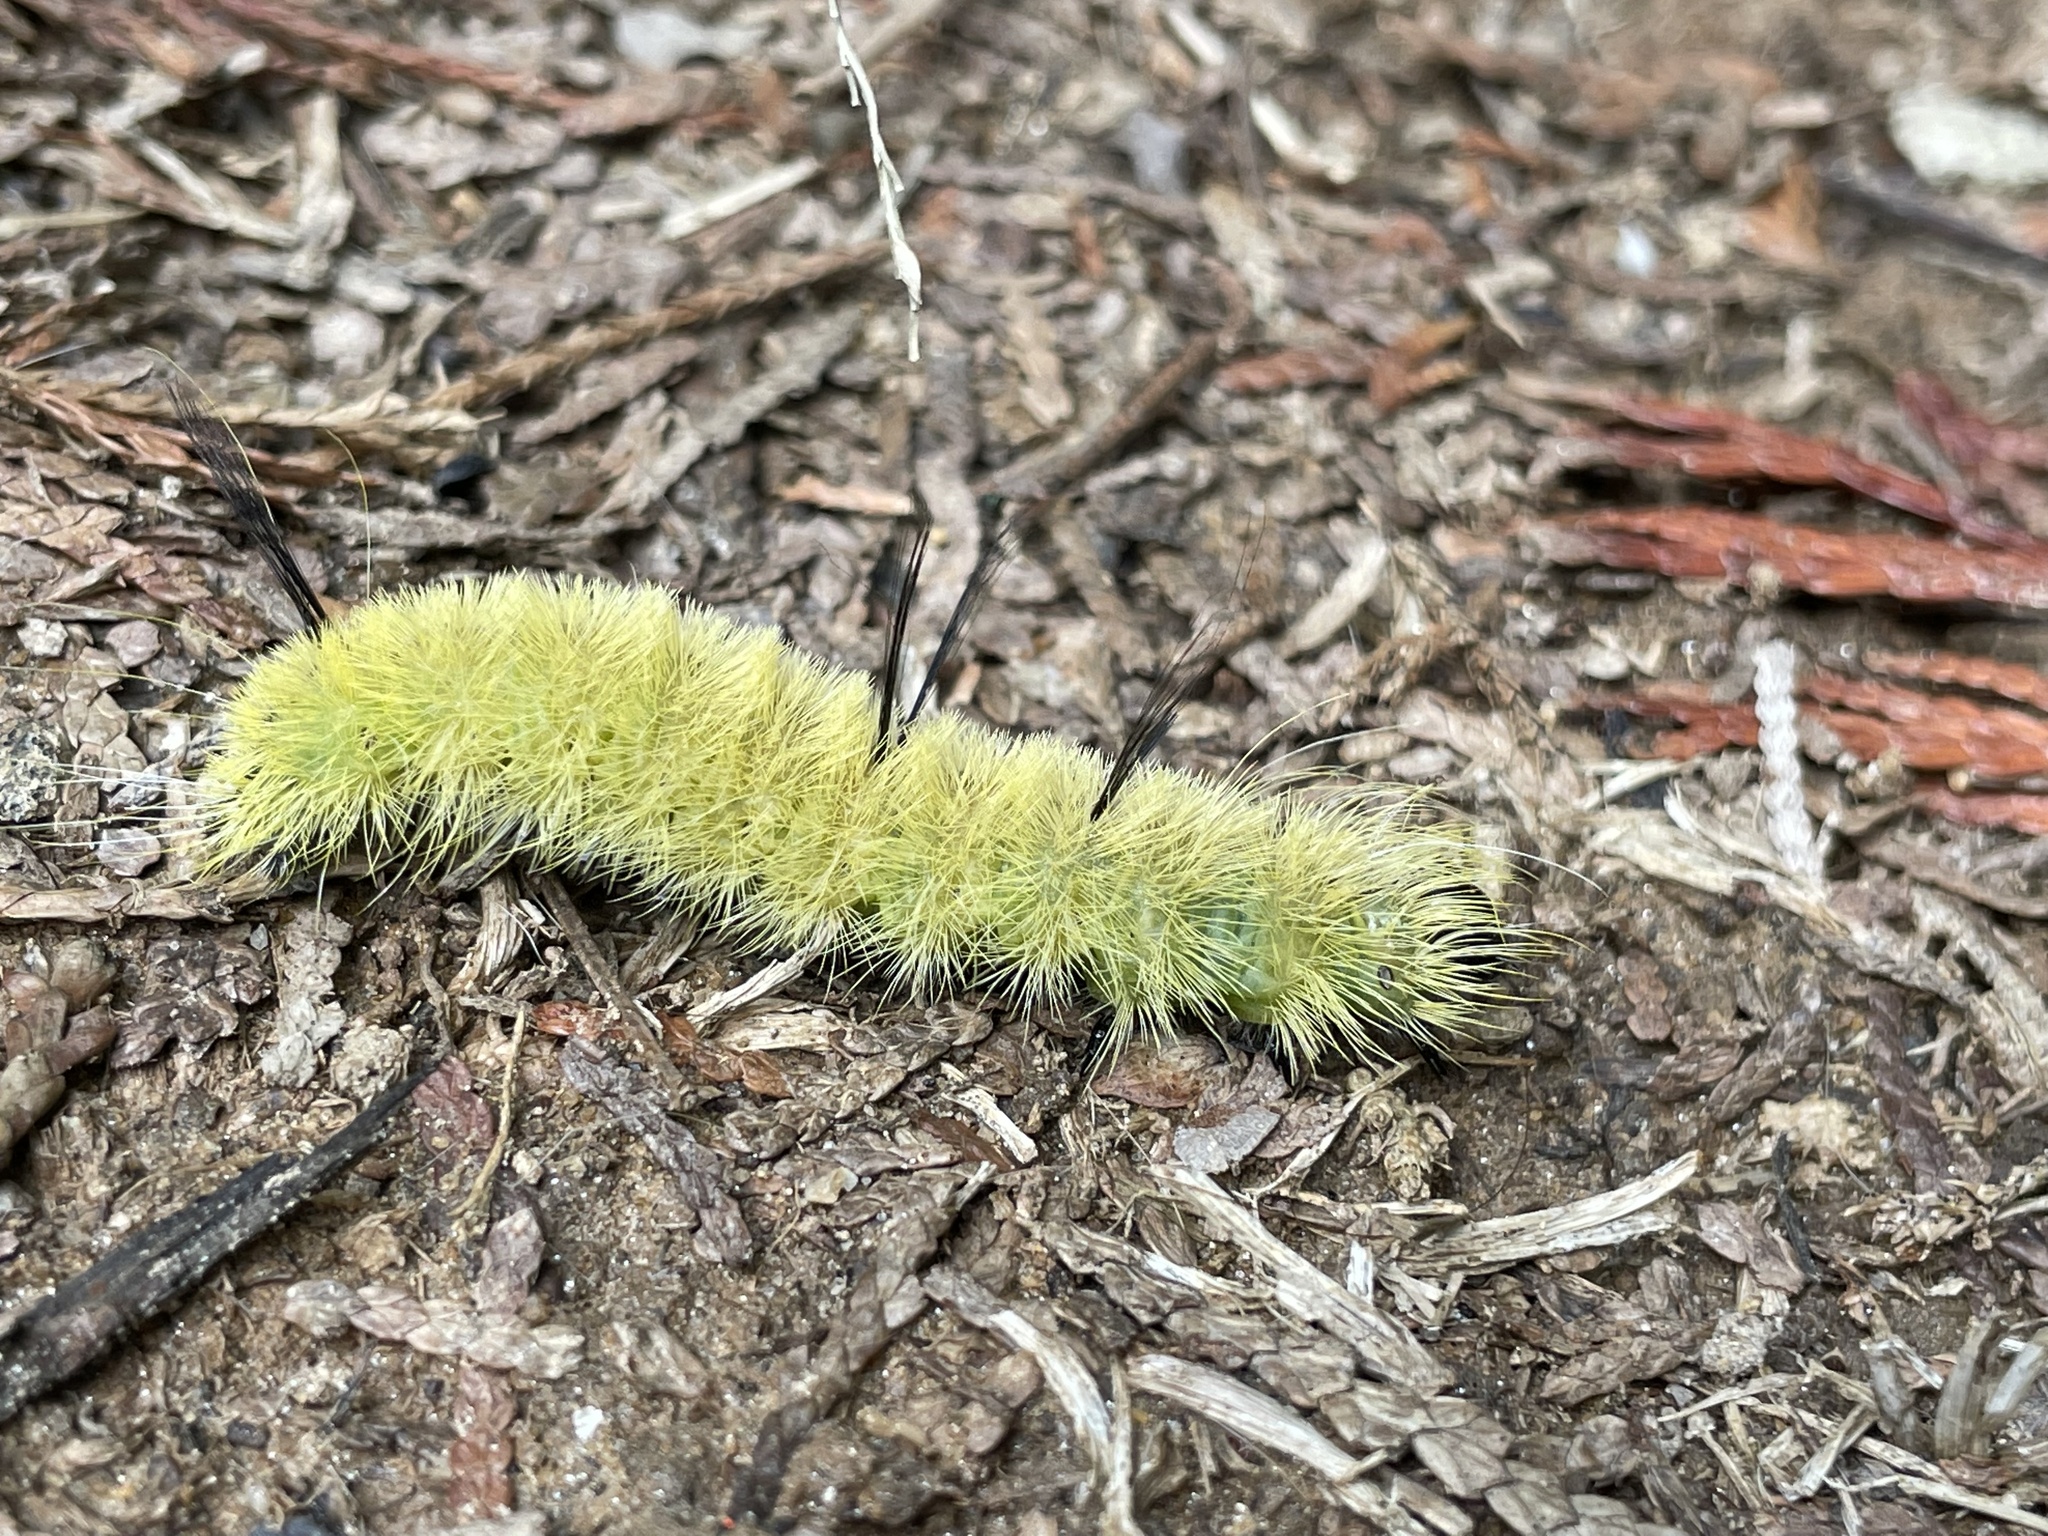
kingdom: Animalia
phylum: Arthropoda
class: Insecta
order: Lepidoptera
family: Noctuidae
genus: Acronicta
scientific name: Acronicta americana
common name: American dagger
